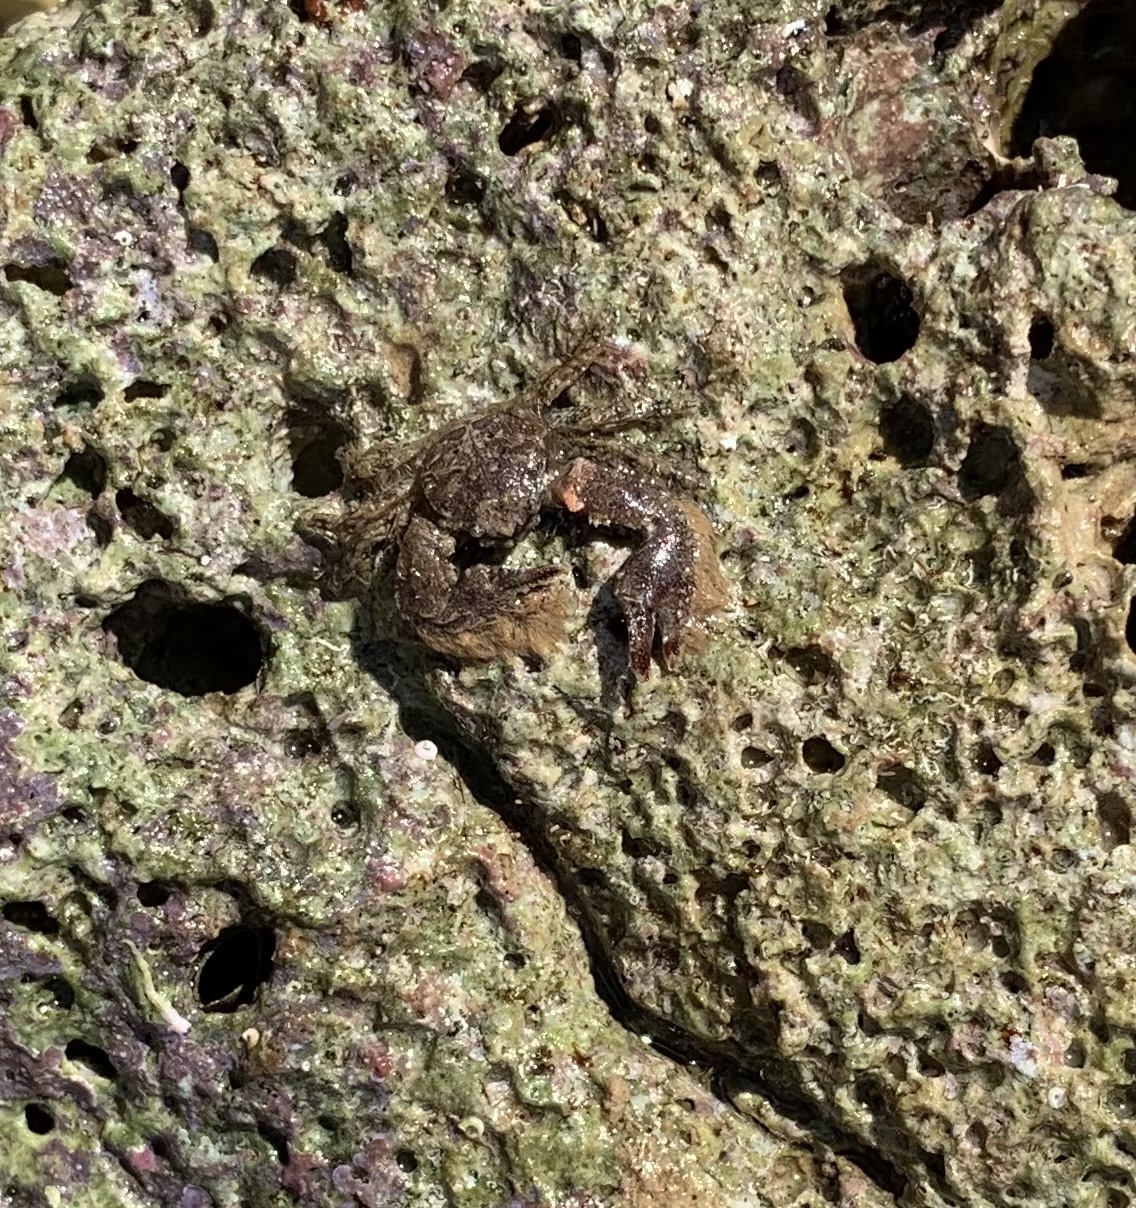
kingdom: Animalia
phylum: Arthropoda
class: Malacostraca
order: Decapoda
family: Porcellanidae
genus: Porcellana
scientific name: Porcellana platycheles
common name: Porcelain crab
